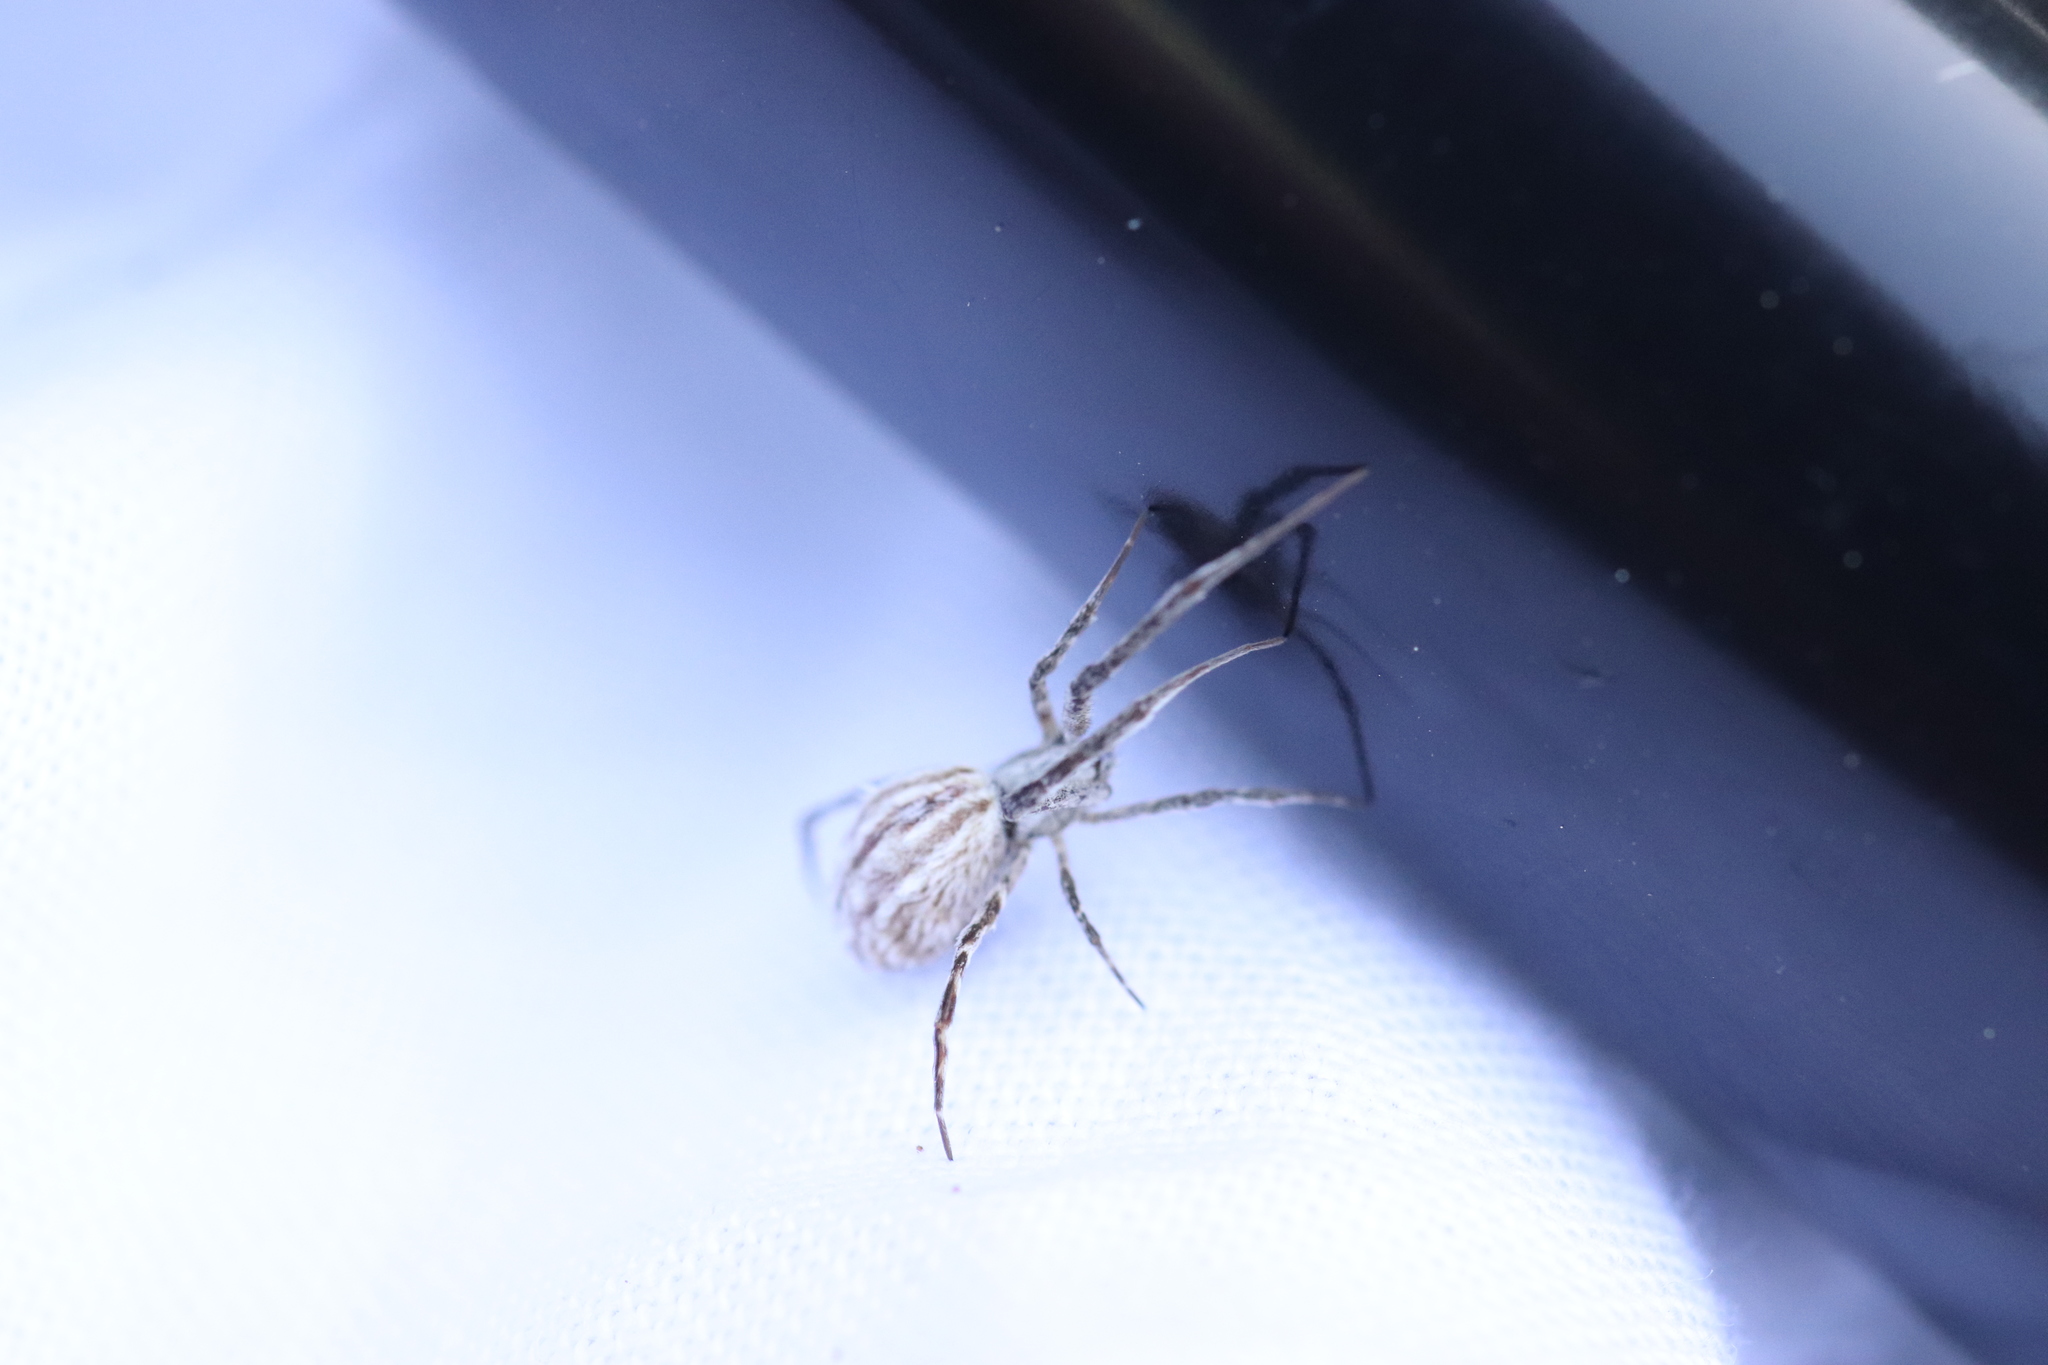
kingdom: Animalia
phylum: Arthropoda
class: Arachnida
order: Araneae
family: Uloboridae
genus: Uloborus
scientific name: Uloborus walckenaerius
